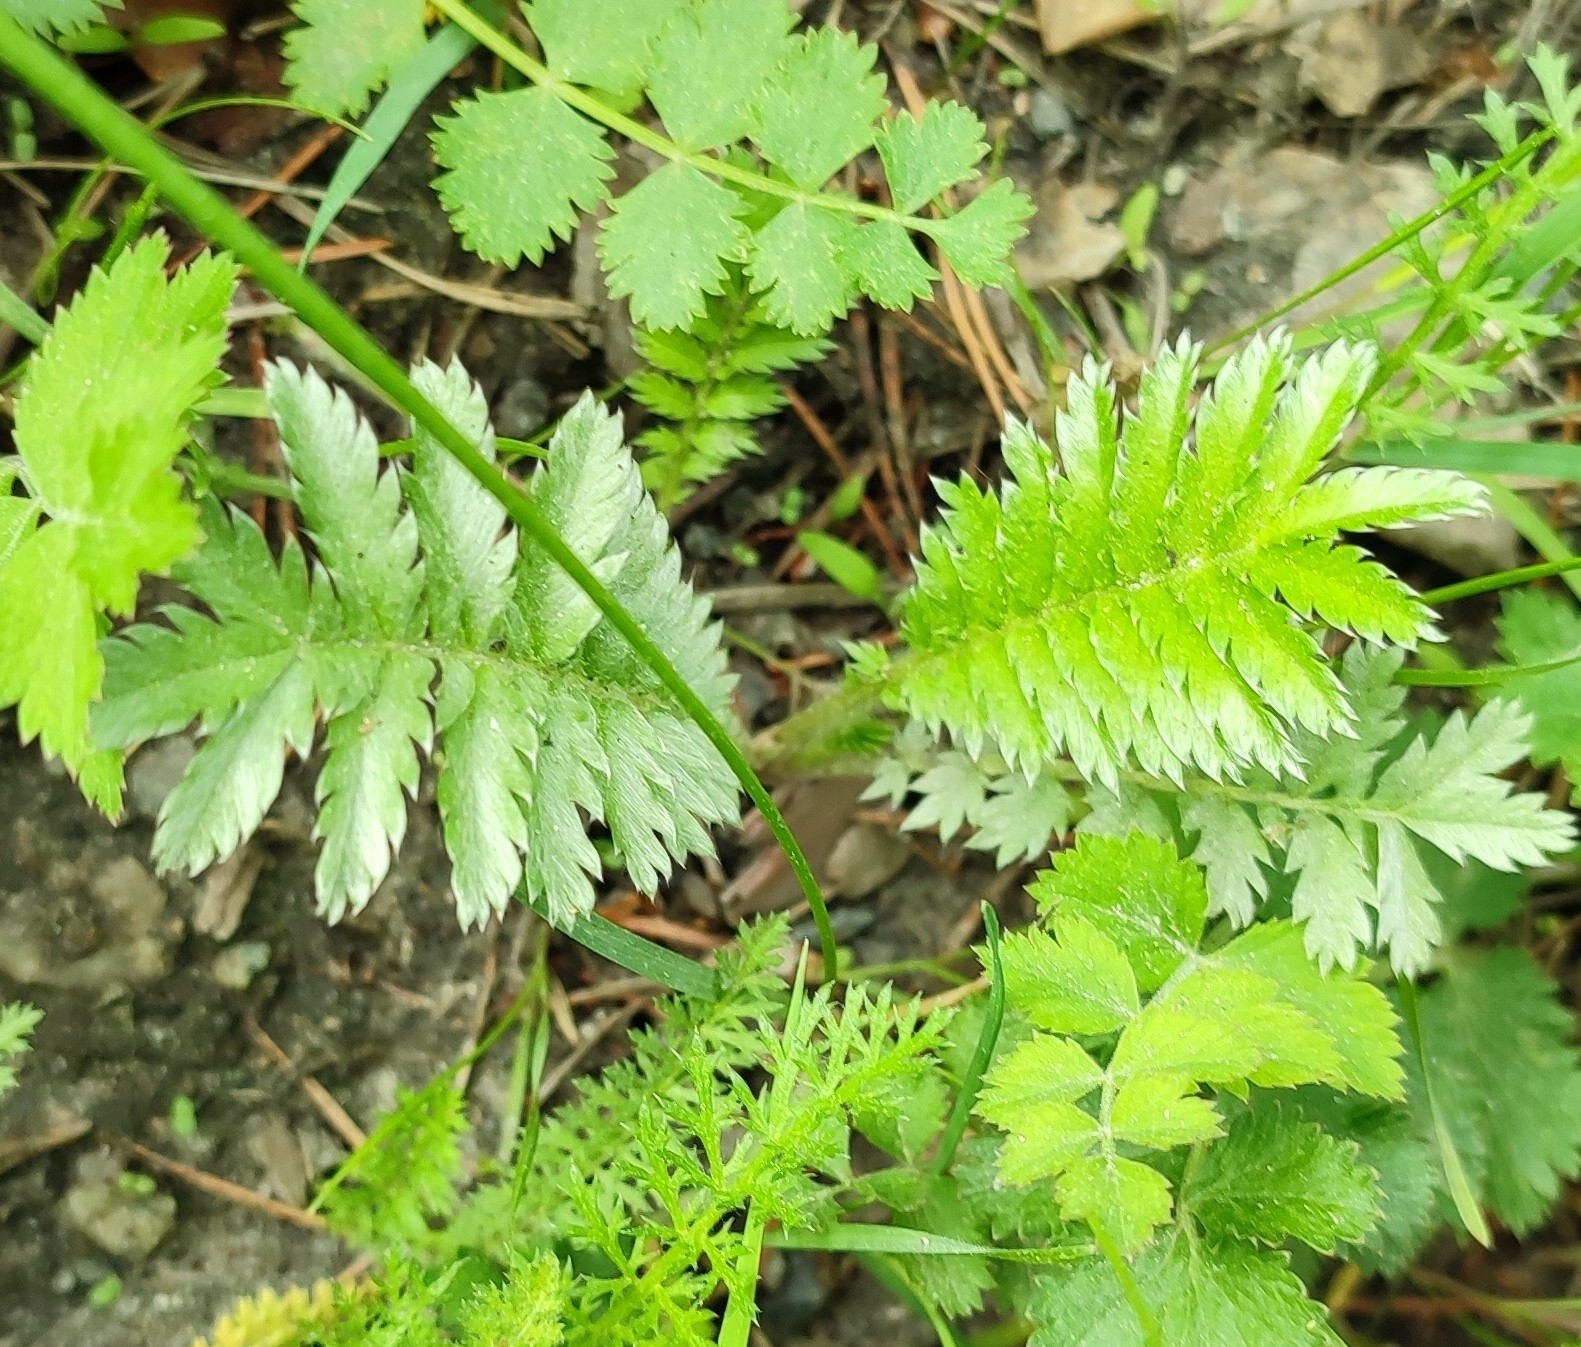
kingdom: Plantae
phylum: Tracheophyta
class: Magnoliopsida
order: Rosales
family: Rosaceae
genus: Argentina
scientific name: Argentina anserina
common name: Common silverweed
